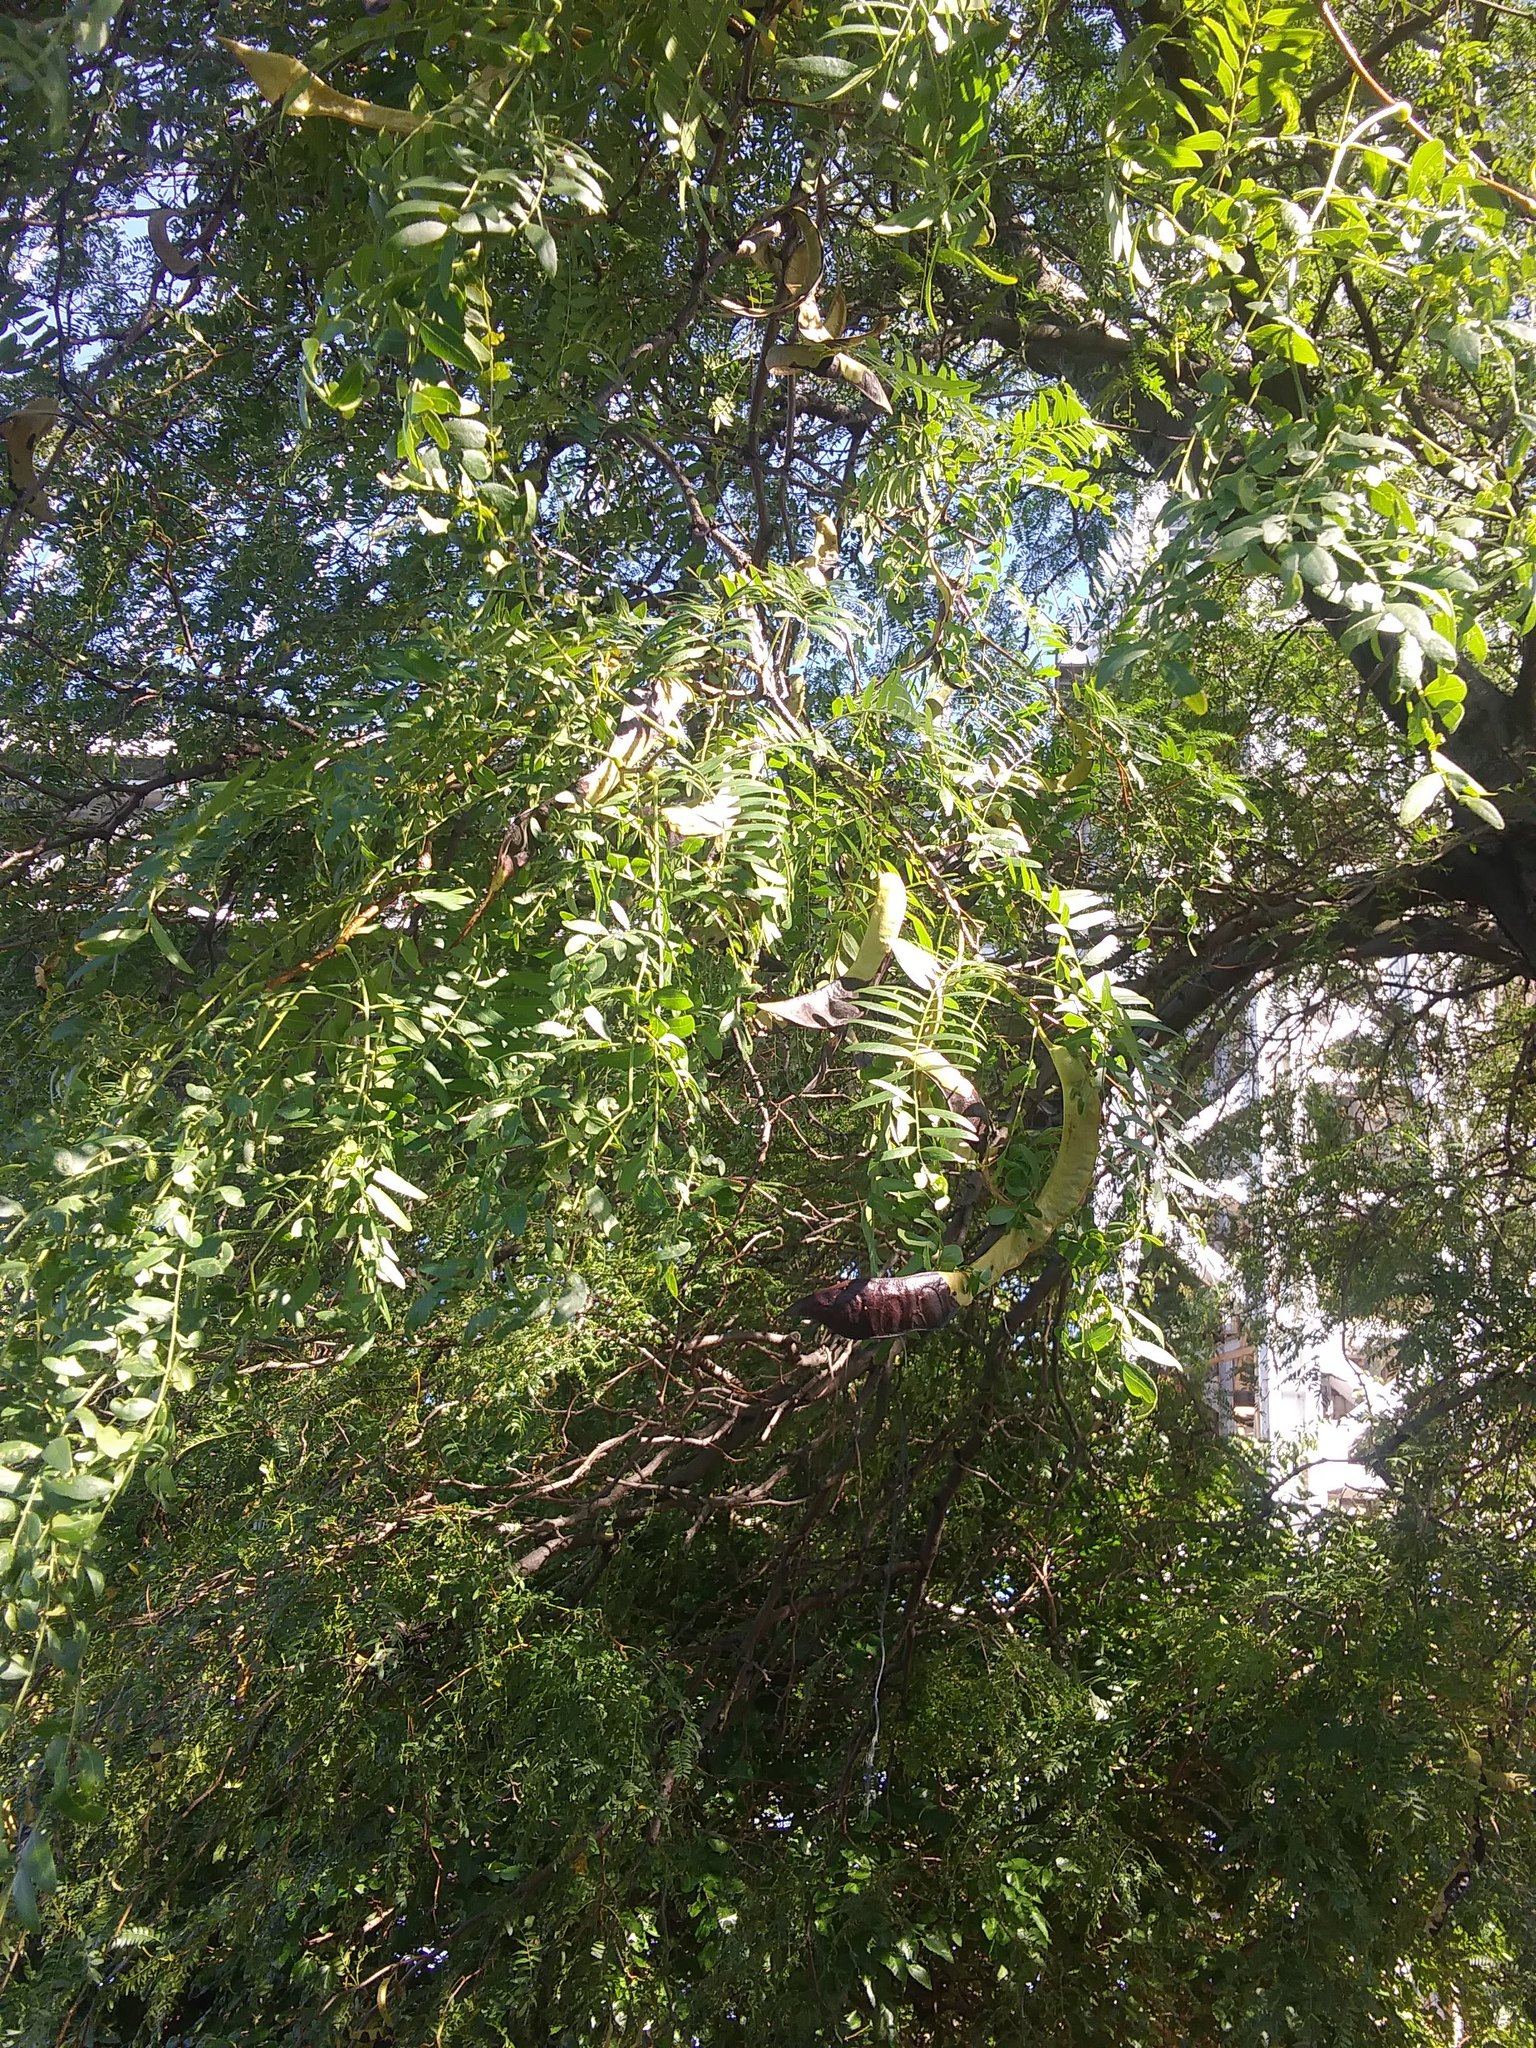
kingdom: Plantae
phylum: Tracheophyta
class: Magnoliopsida
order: Fabales
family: Fabaceae
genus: Gleditsia
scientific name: Gleditsia triacanthos
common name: Common honeylocust
